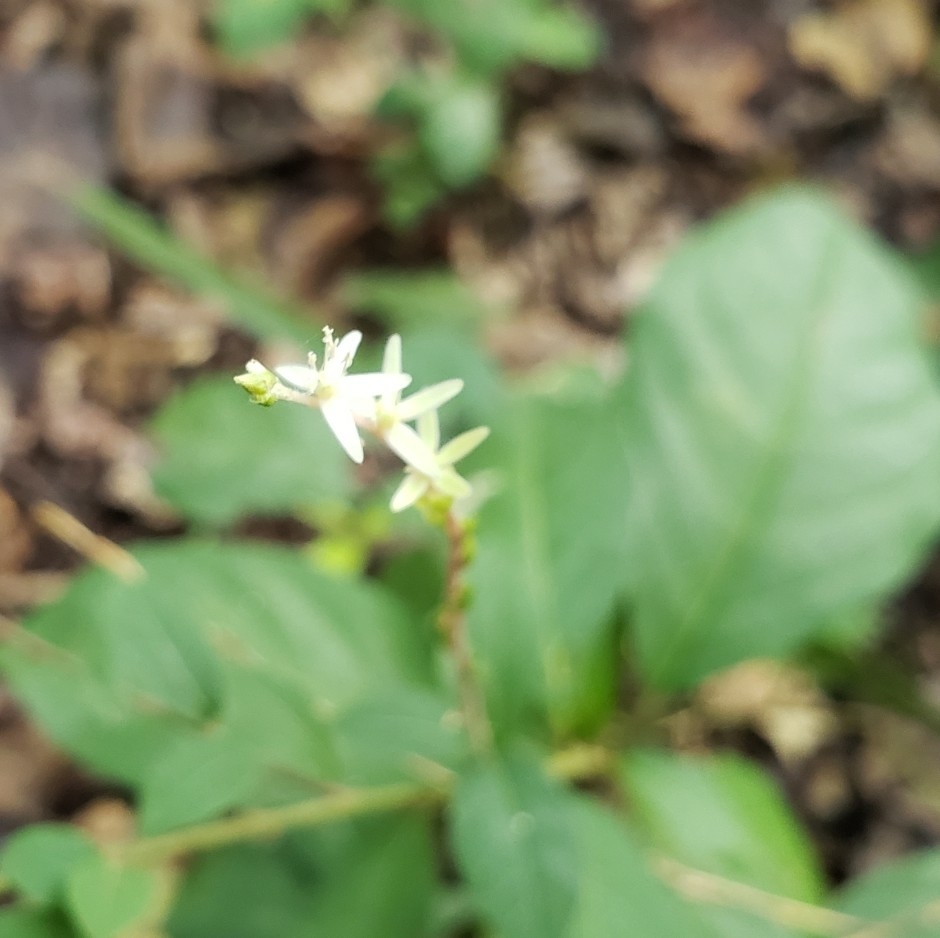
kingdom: Plantae
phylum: Tracheophyta
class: Magnoliopsida
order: Caryophyllales
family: Phytolaccaceae
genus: Petiveria
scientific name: Petiveria alliacea
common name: Garlicweed
